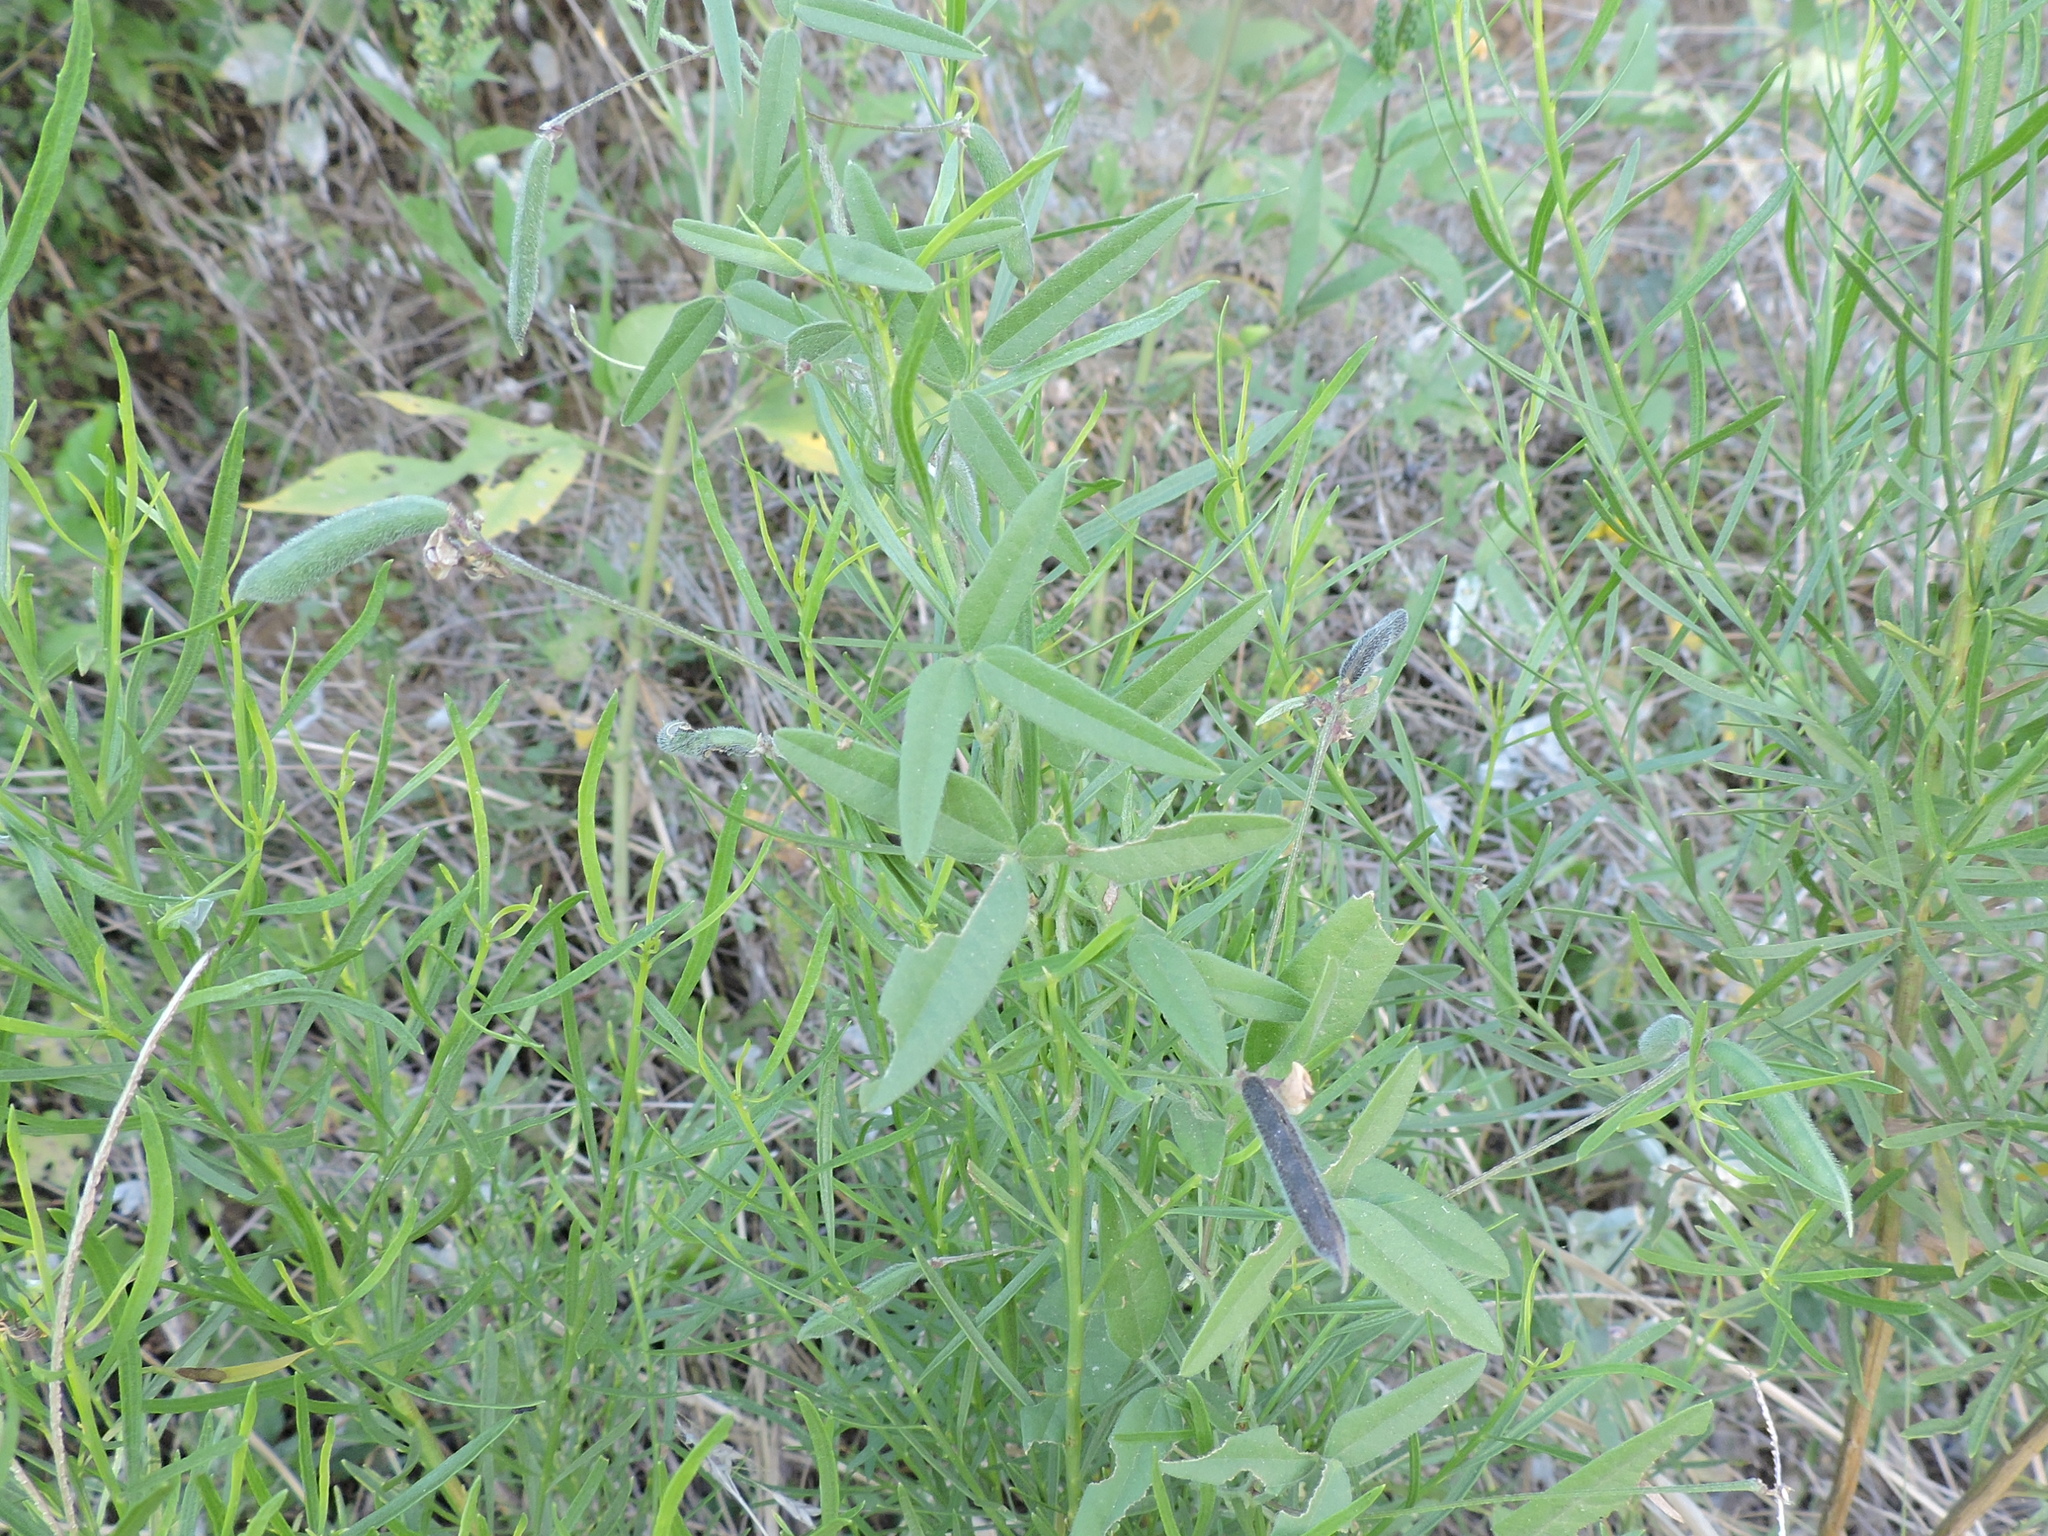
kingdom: Plantae
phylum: Tracheophyta
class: Magnoliopsida
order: Fabales
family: Fabaceae
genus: Strophostyles
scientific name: Strophostyles leiosperma
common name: Smooth-seed wild bean
